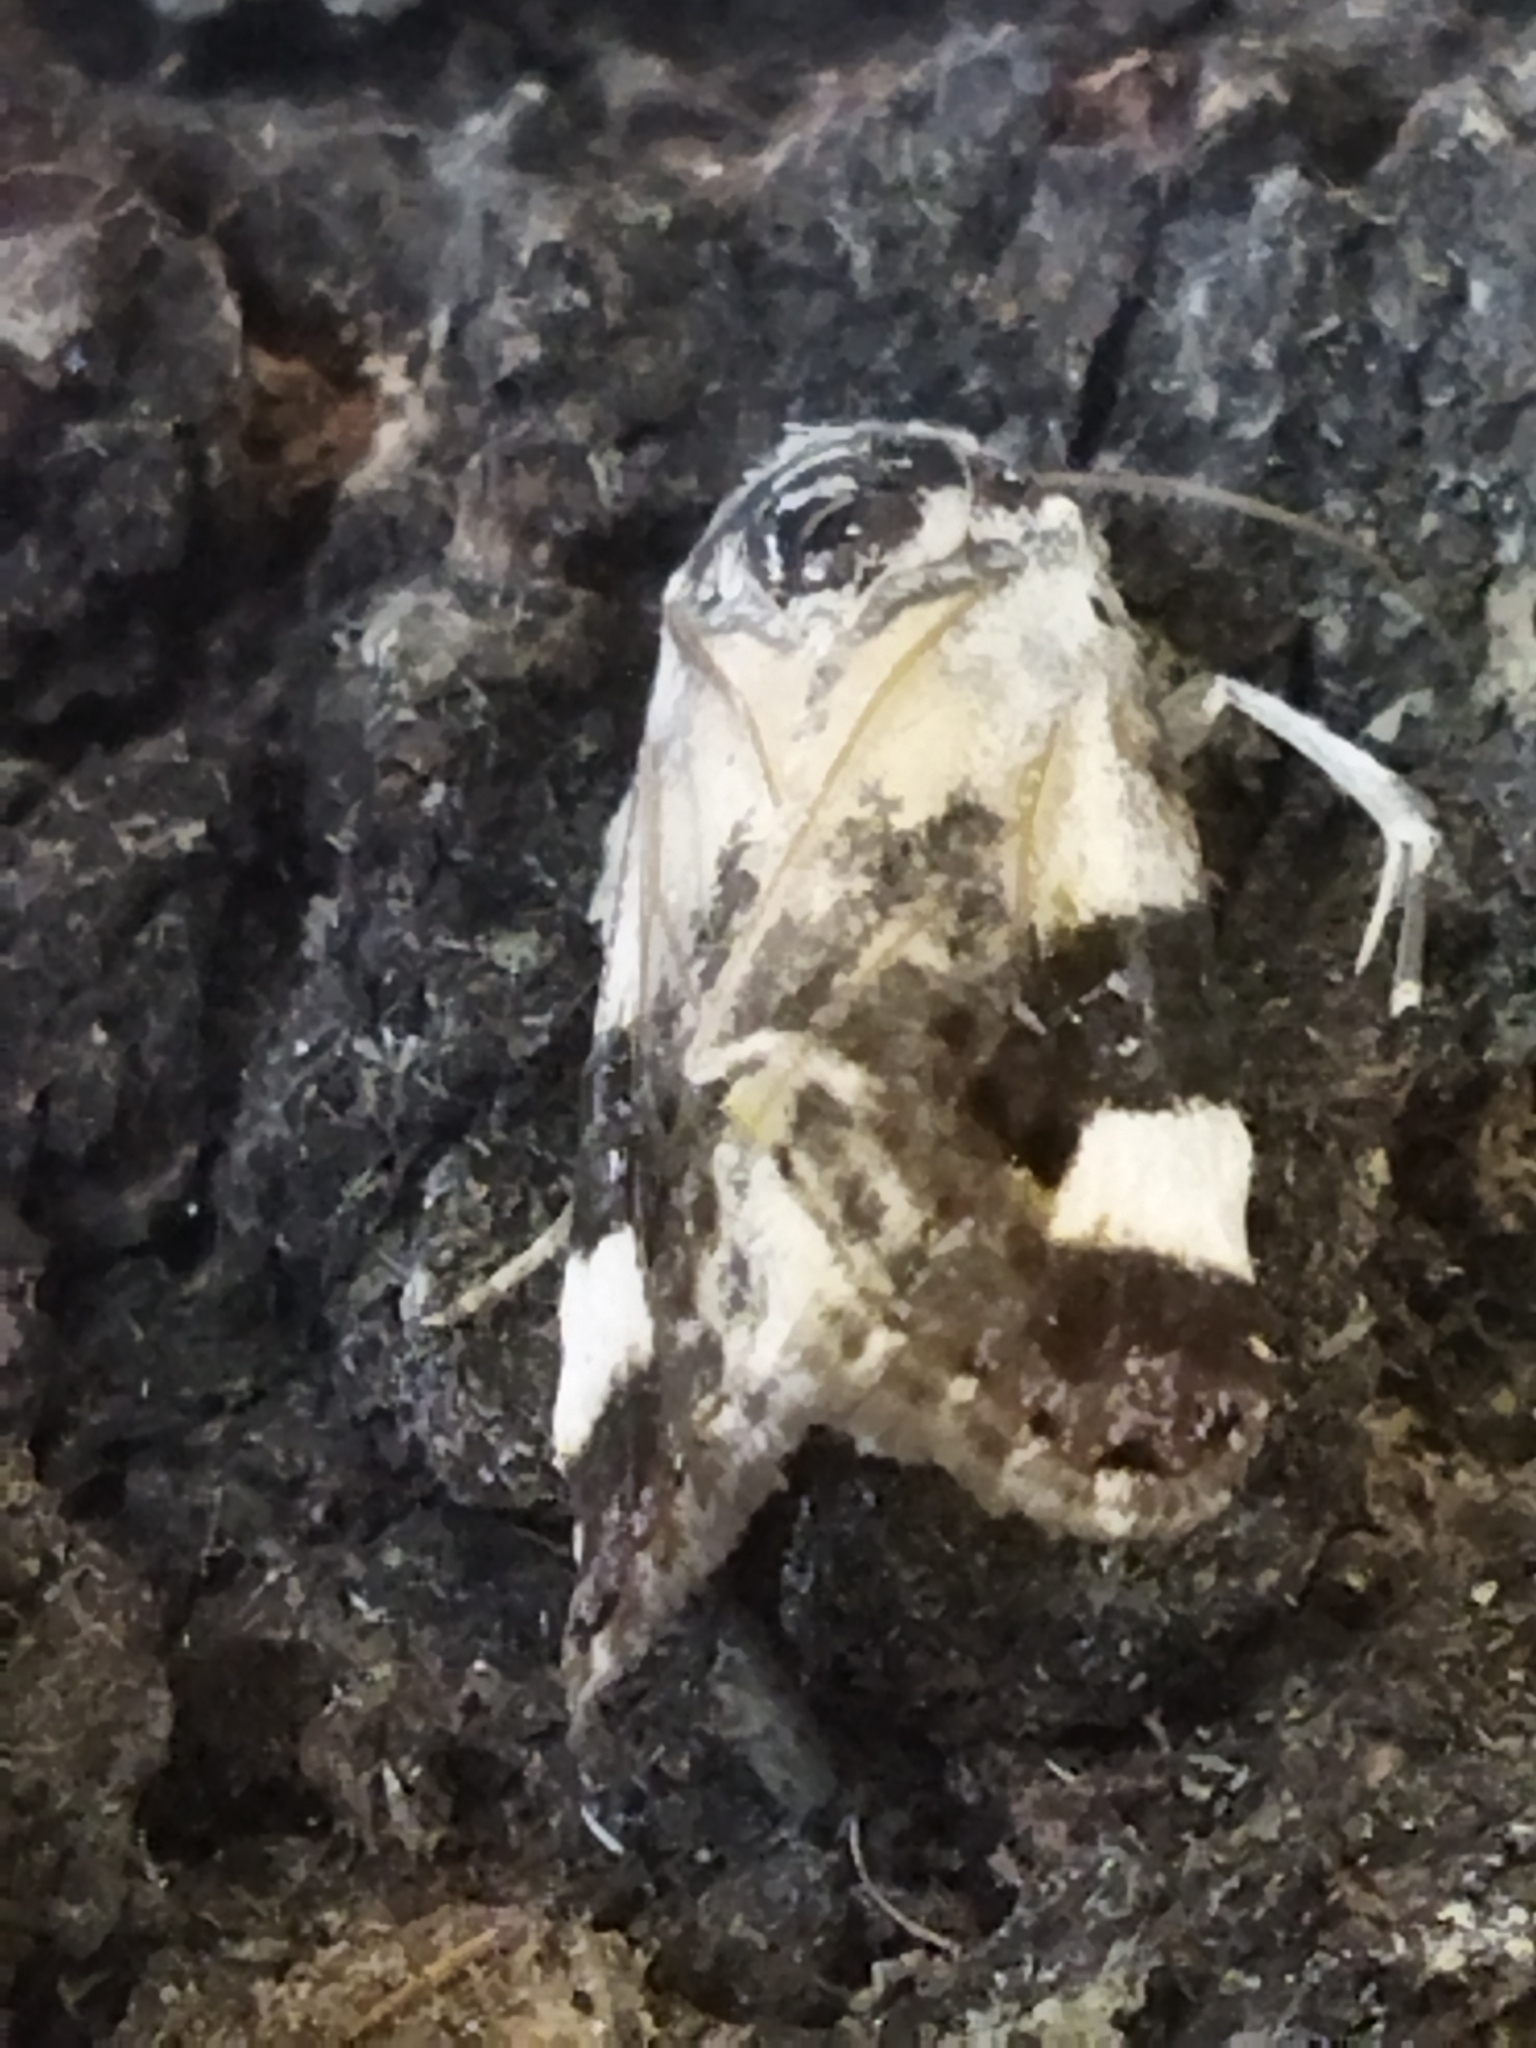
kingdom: Animalia
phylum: Arthropoda
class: Insecta
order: Lepidoptera
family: Noctuidae
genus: Acontia
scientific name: Acontia lucida
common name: Pale shoulder
